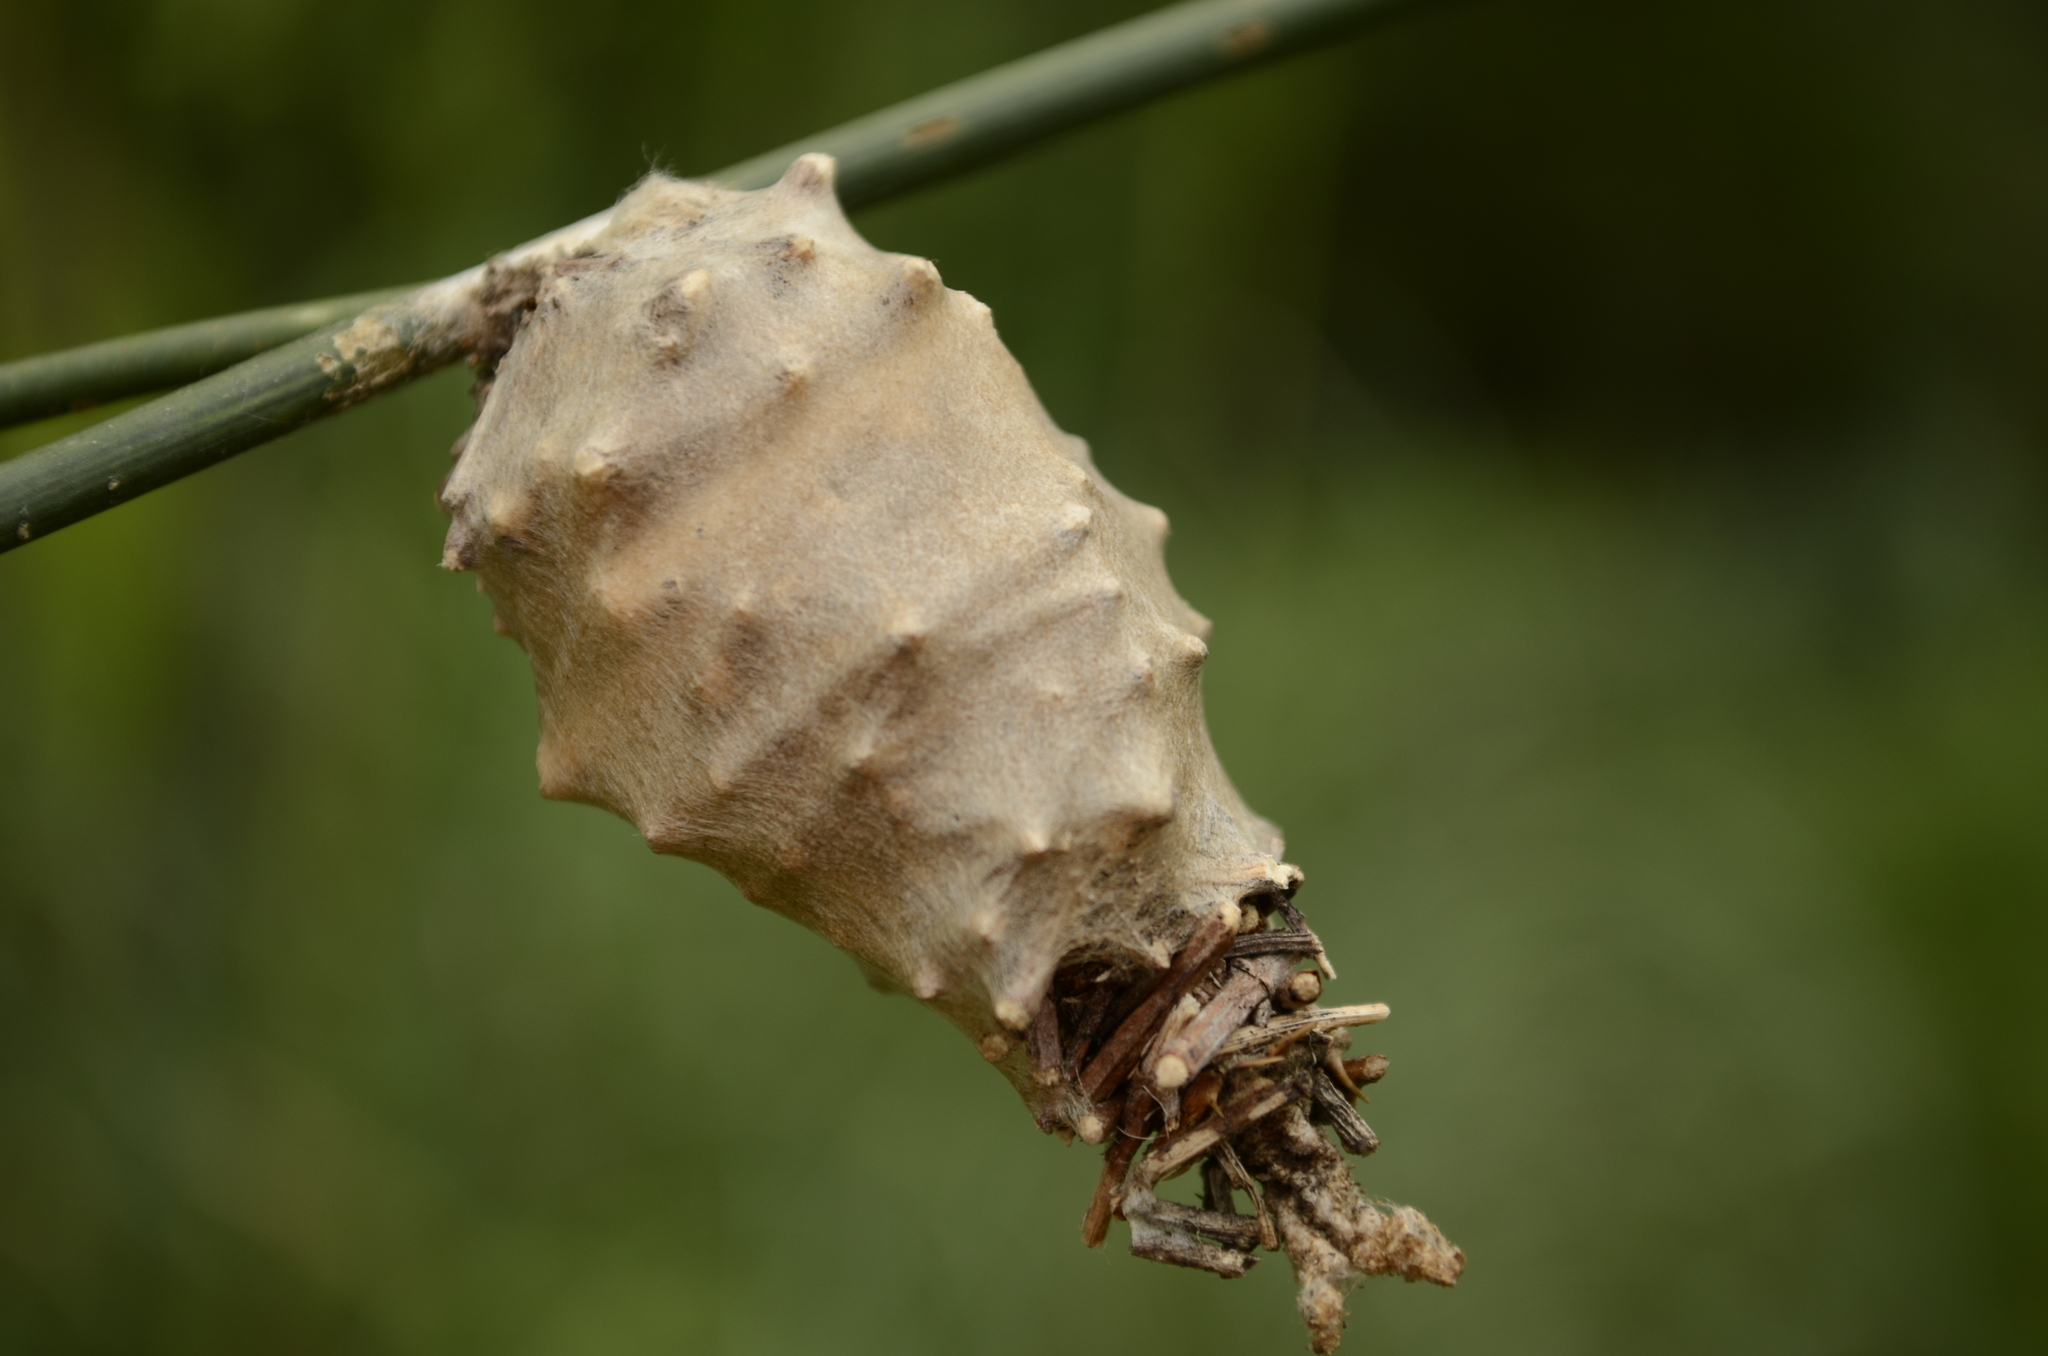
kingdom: Animalia
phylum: Arthropoda
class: Insecta
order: Lepidoptera
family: Psychidae
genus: Oiketicus
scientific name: Oiketicus
